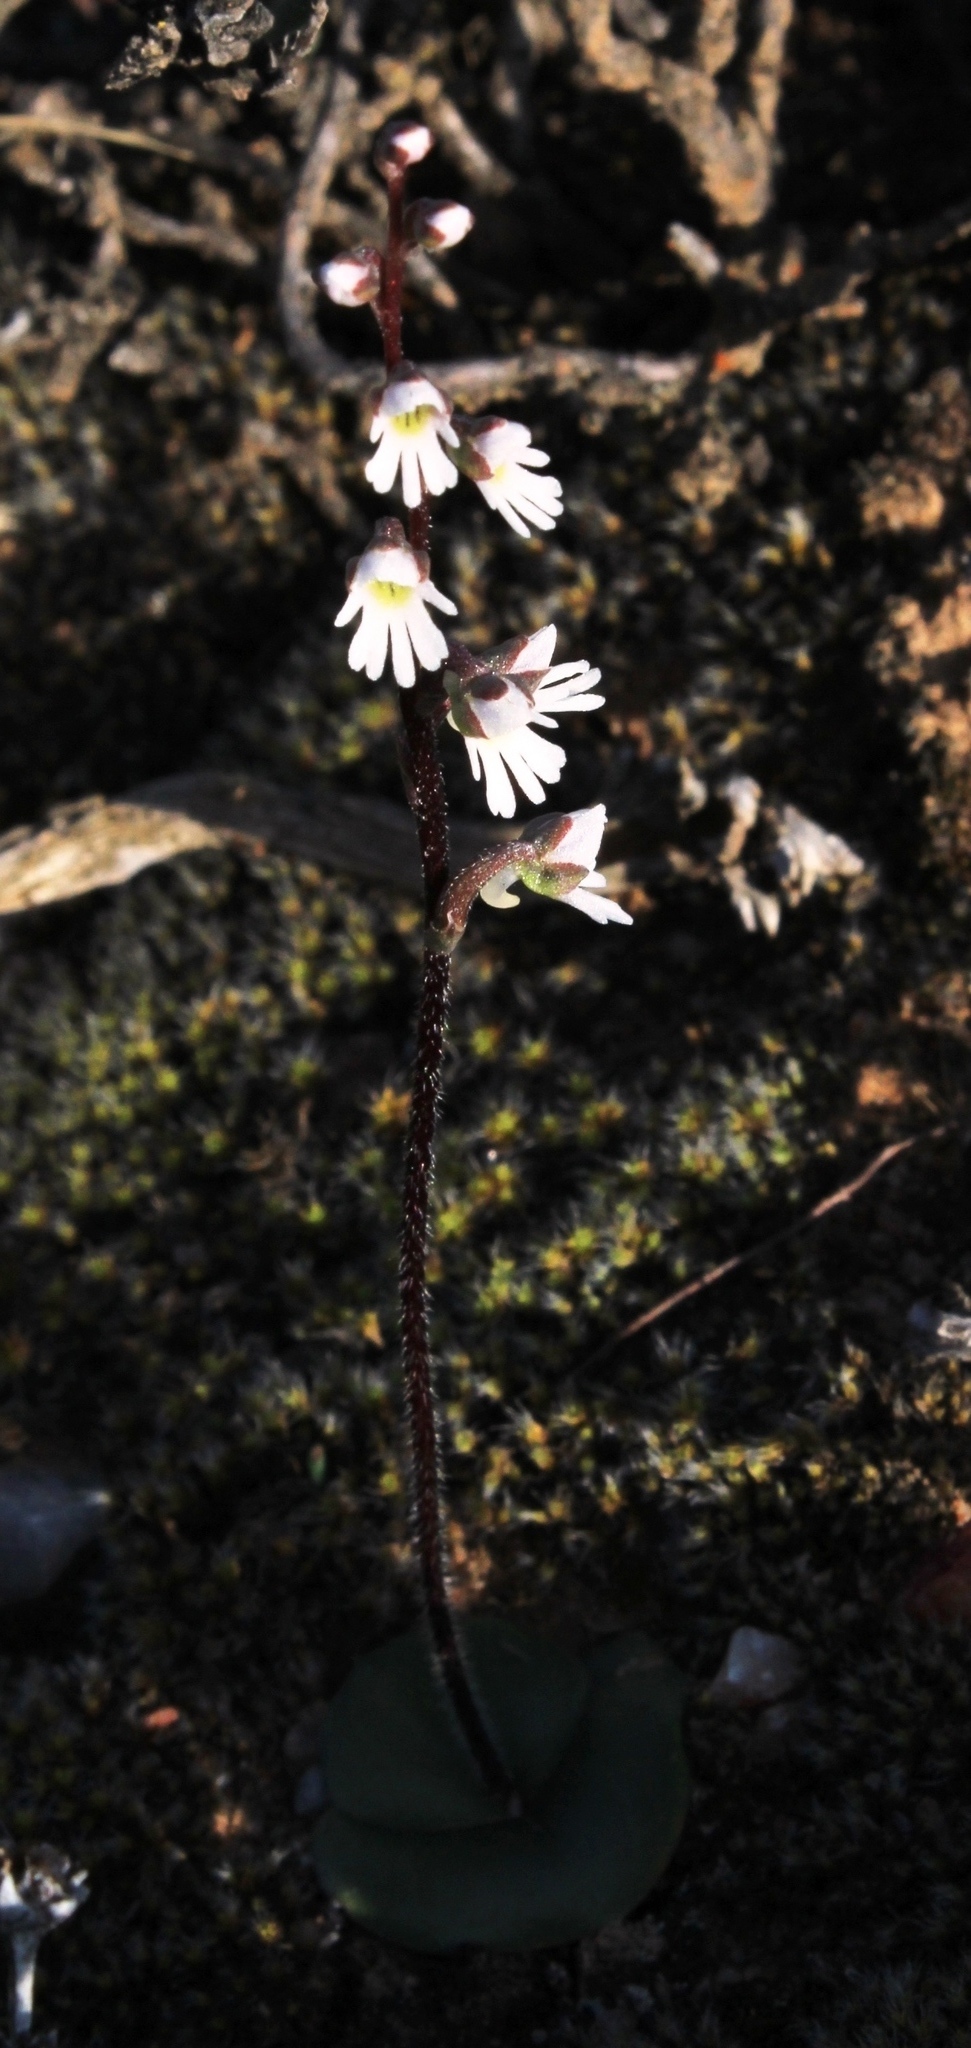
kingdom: Plantae
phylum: Tracheophyta
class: Liliopsida
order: Asparagales
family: Orchidaceae
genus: Holothrix
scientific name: Holothrix aspera
